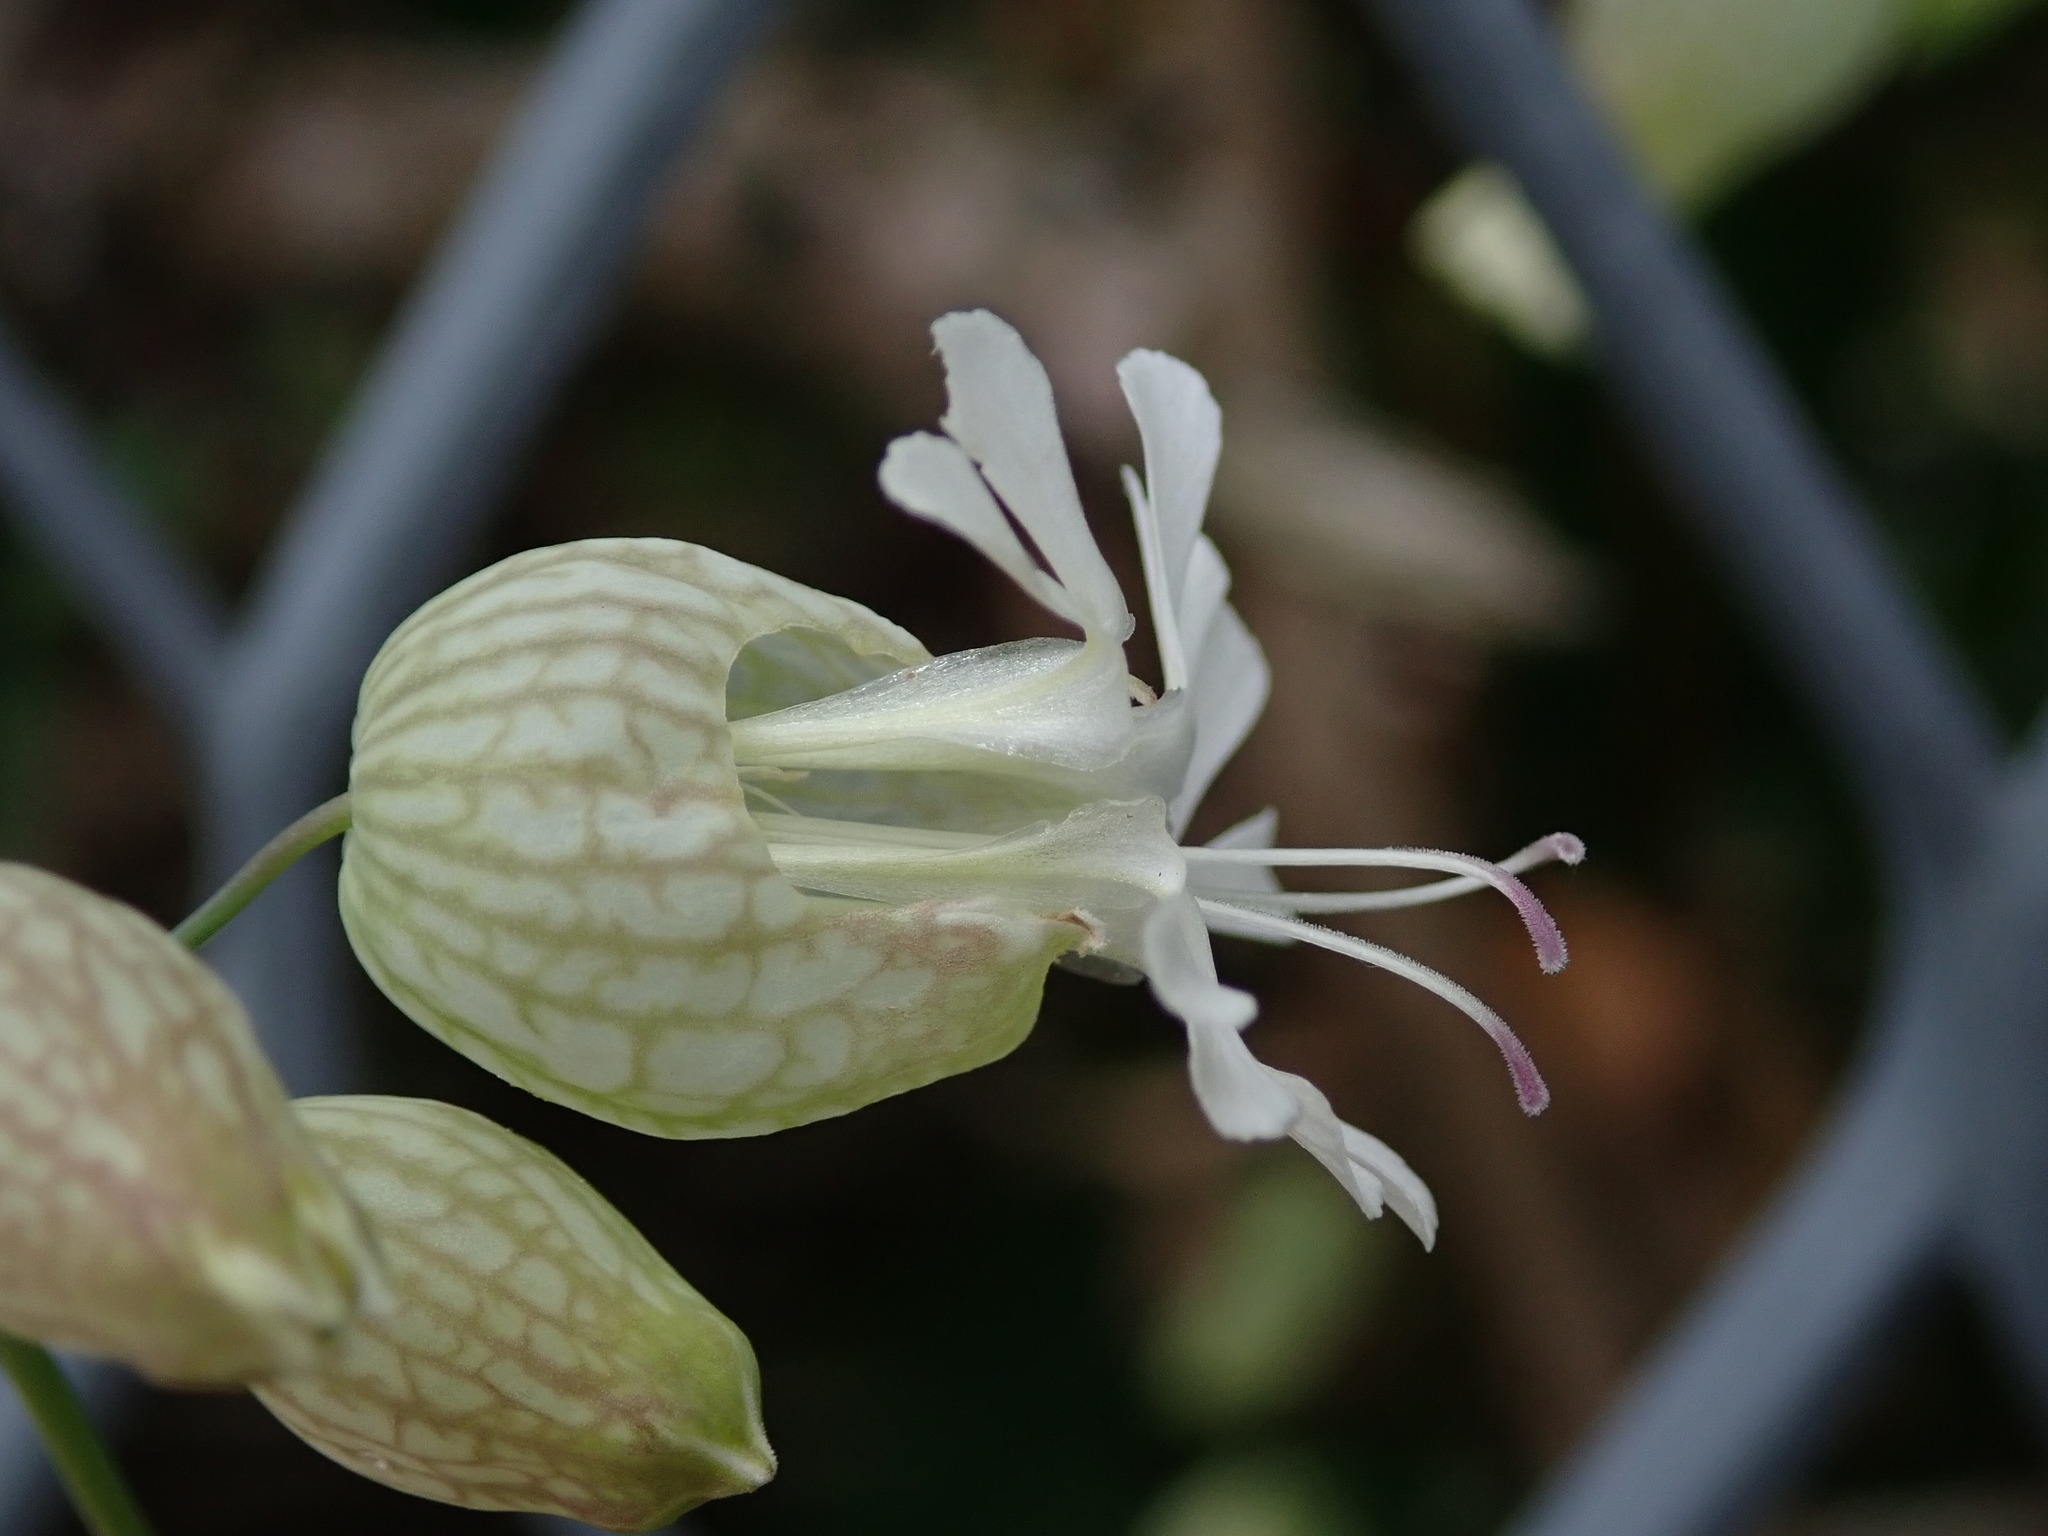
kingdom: Plantae
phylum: Tracheophyta
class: Magnoliopsida
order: Caryophyllales
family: Caryophyllaceae
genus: Silene
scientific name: Silene vulgaris
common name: Bladder campion
